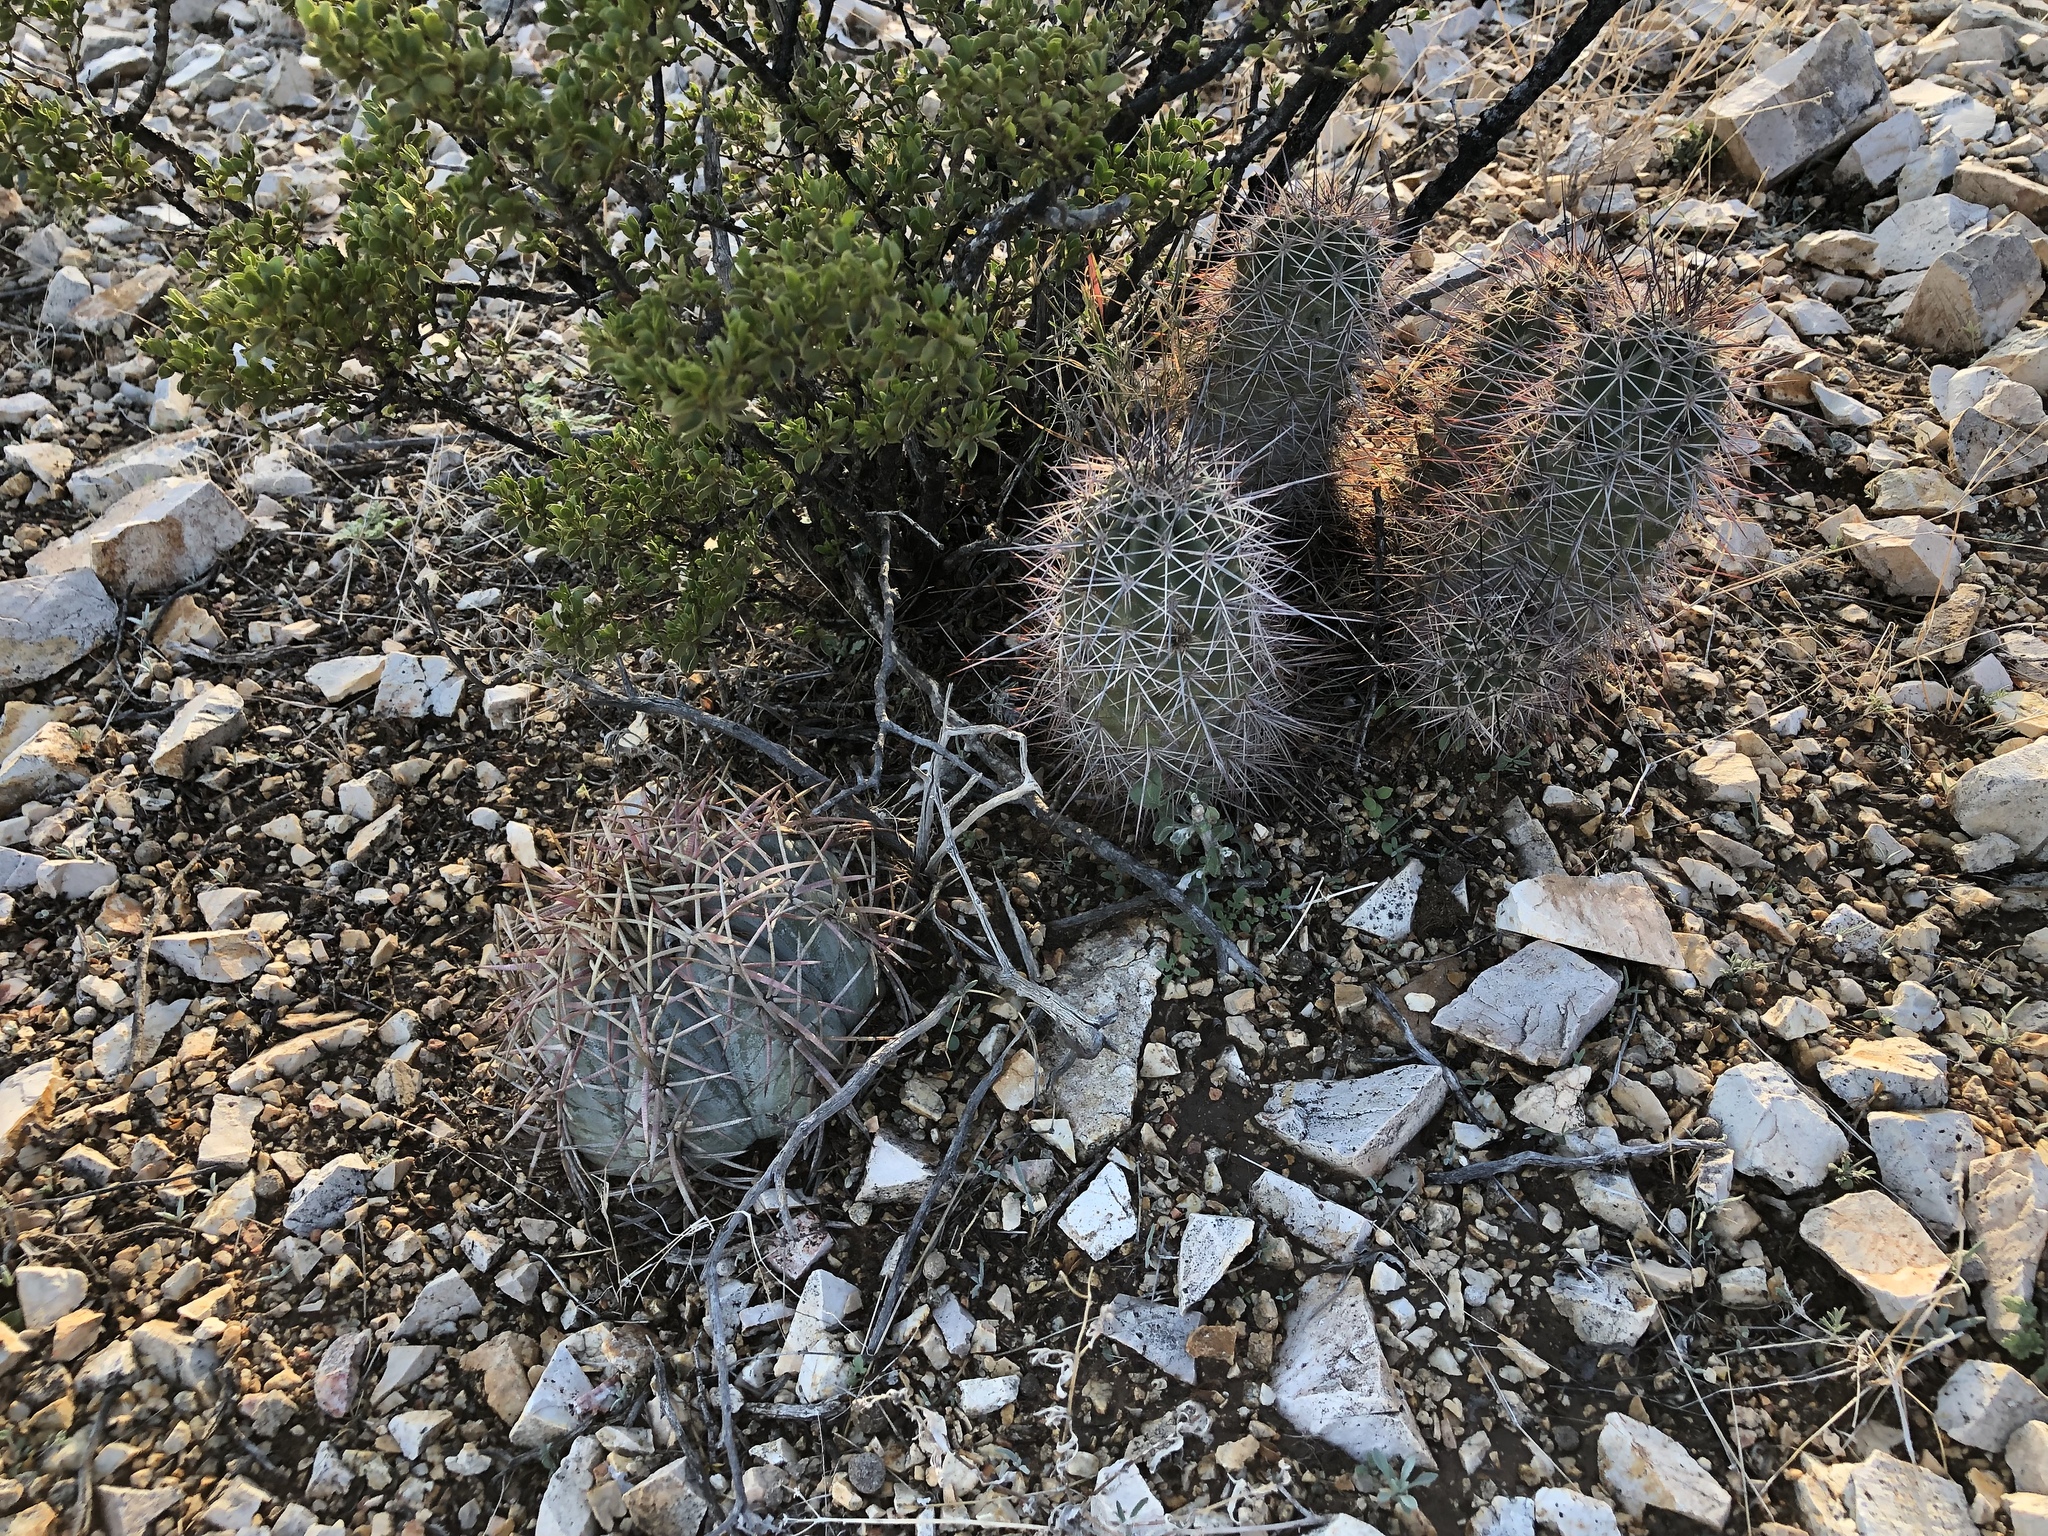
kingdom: Plantae
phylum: Tracheophyta
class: Magnoliopsida
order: Caryophyllales
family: Cactaceae
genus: Echinocereus
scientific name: Echinocereus coccineus
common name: Scarlet hedgehog cactus
